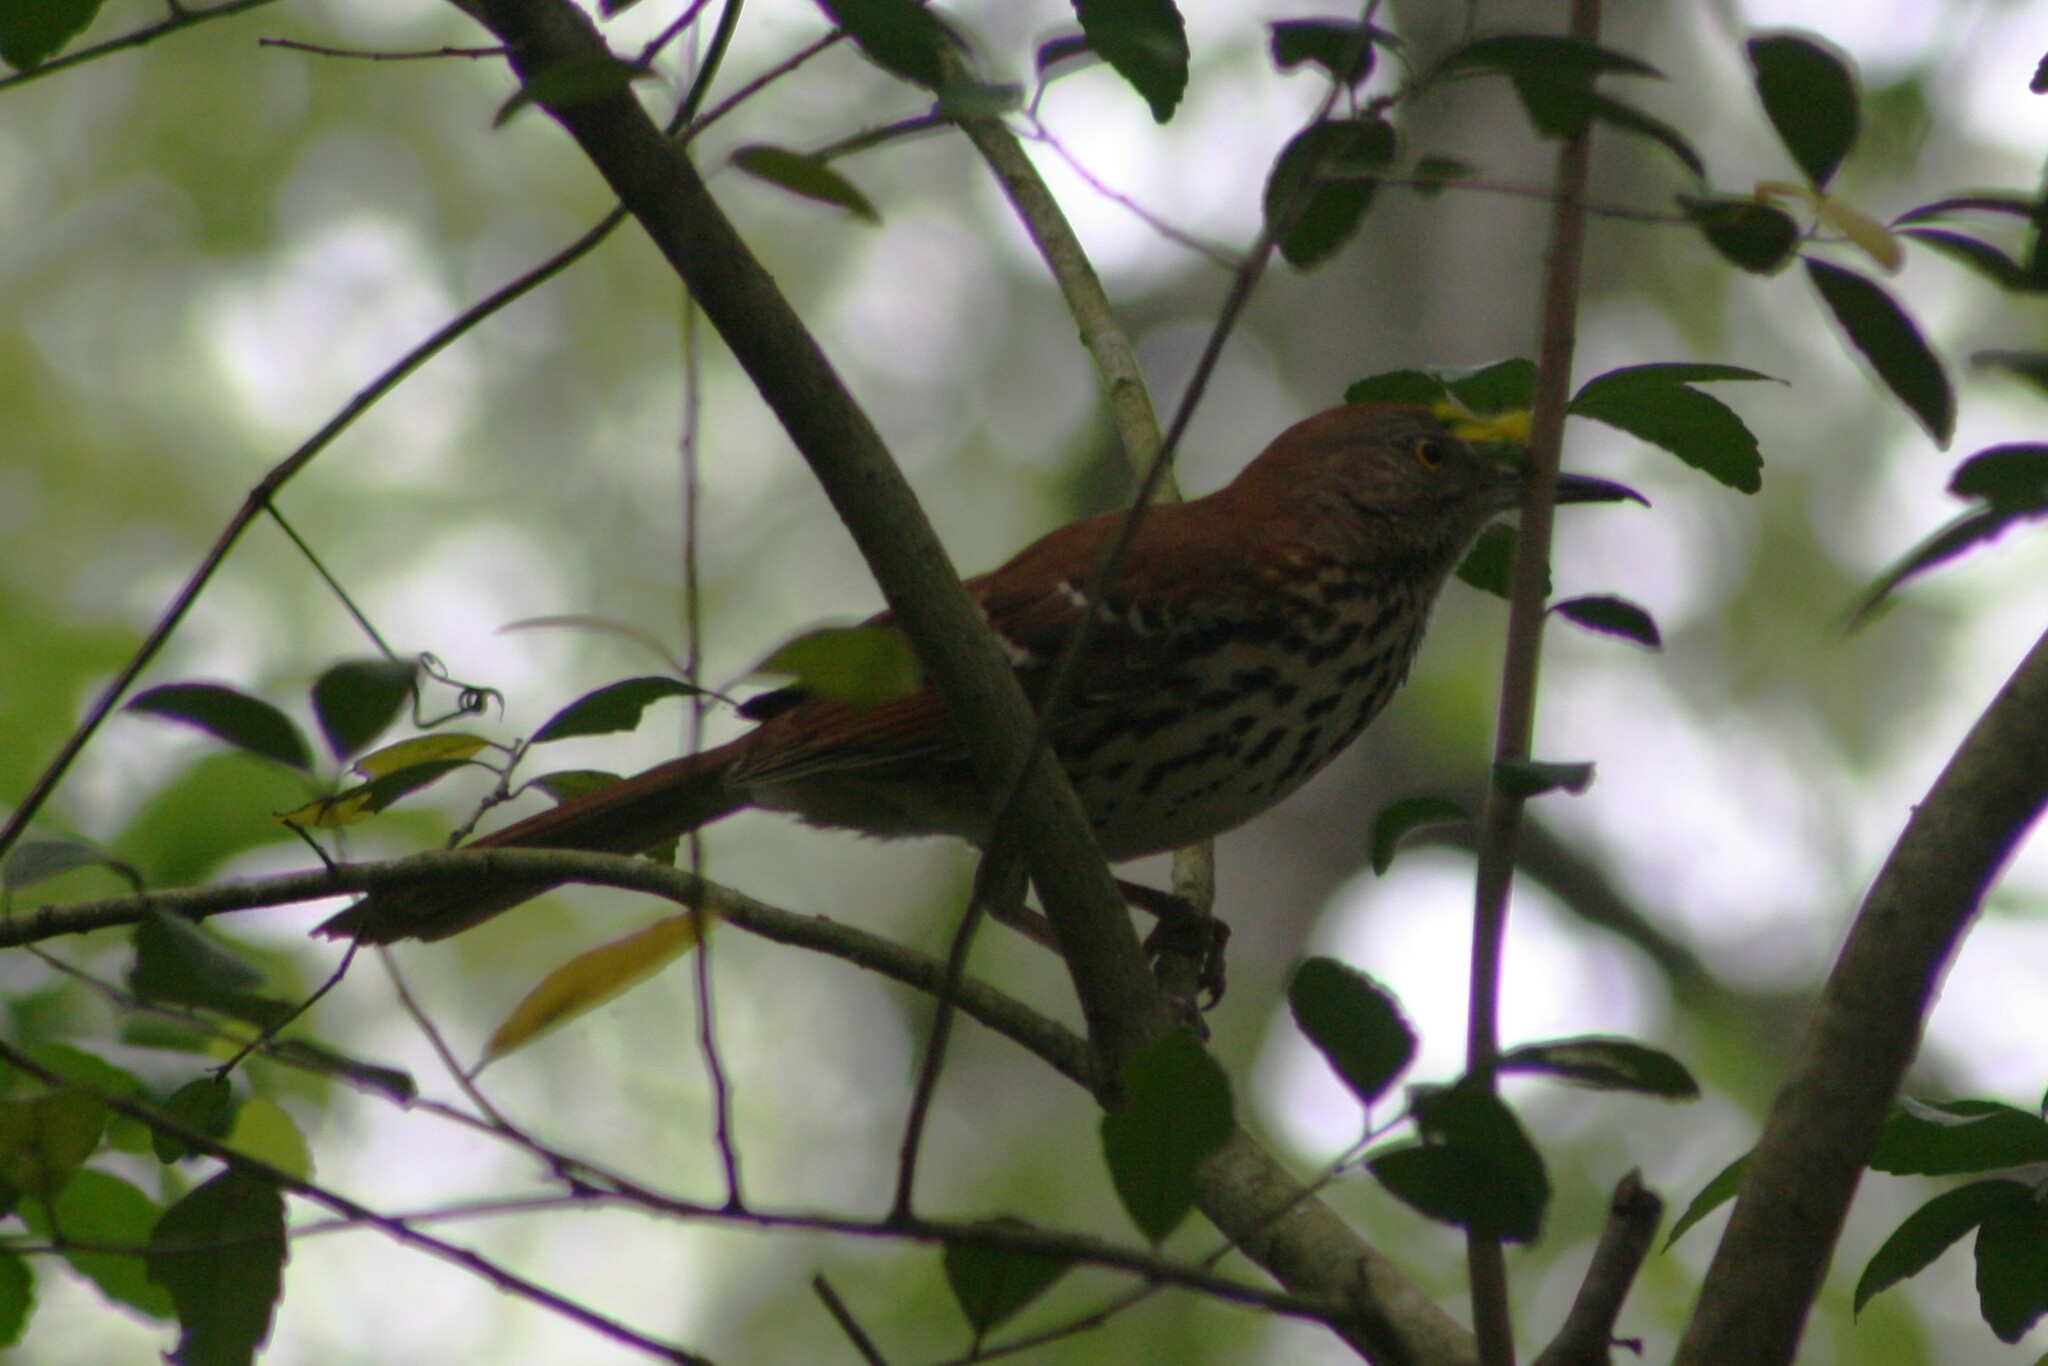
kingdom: Animalia
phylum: Chordata
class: Aves
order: Passeriformes
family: Mimidae
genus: Toxostoma
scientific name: Toxostoma rufum
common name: Brown thrasher
